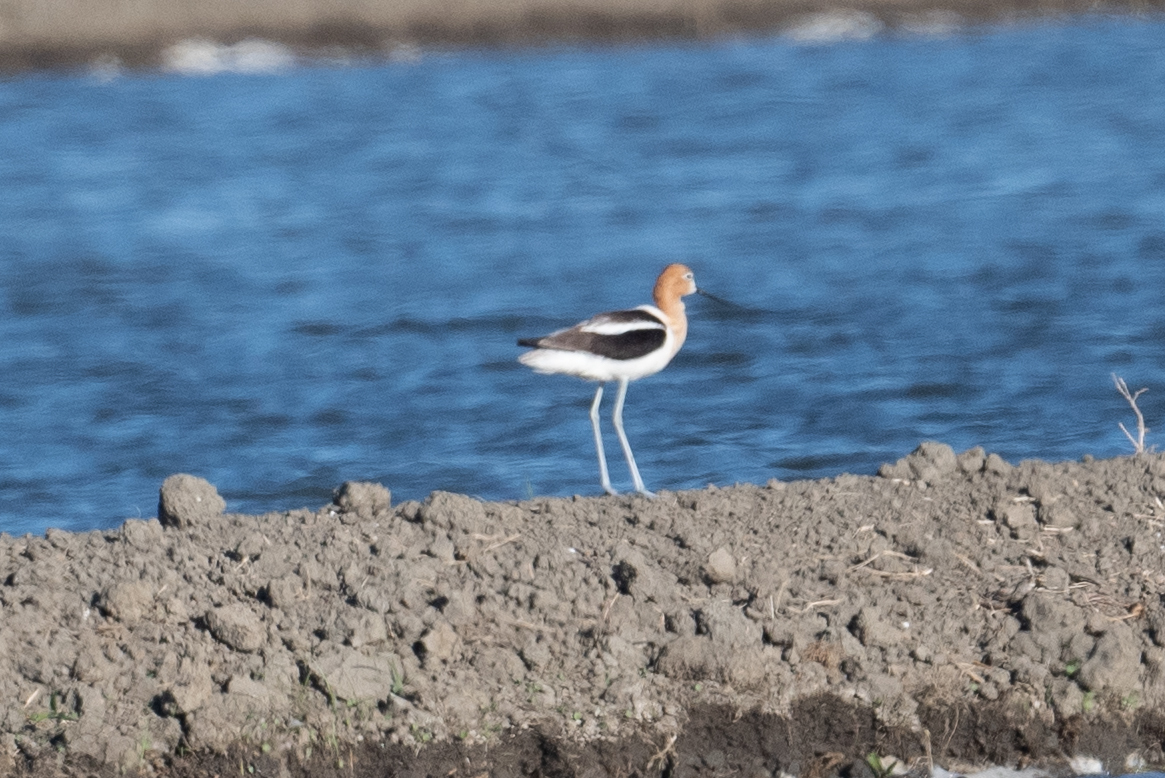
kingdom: Animalia
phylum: Chordata
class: Aves
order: Charadriiformes
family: Recurvirostridae
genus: Recurvirostra
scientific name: Recurvirostra americana
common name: American avocet
